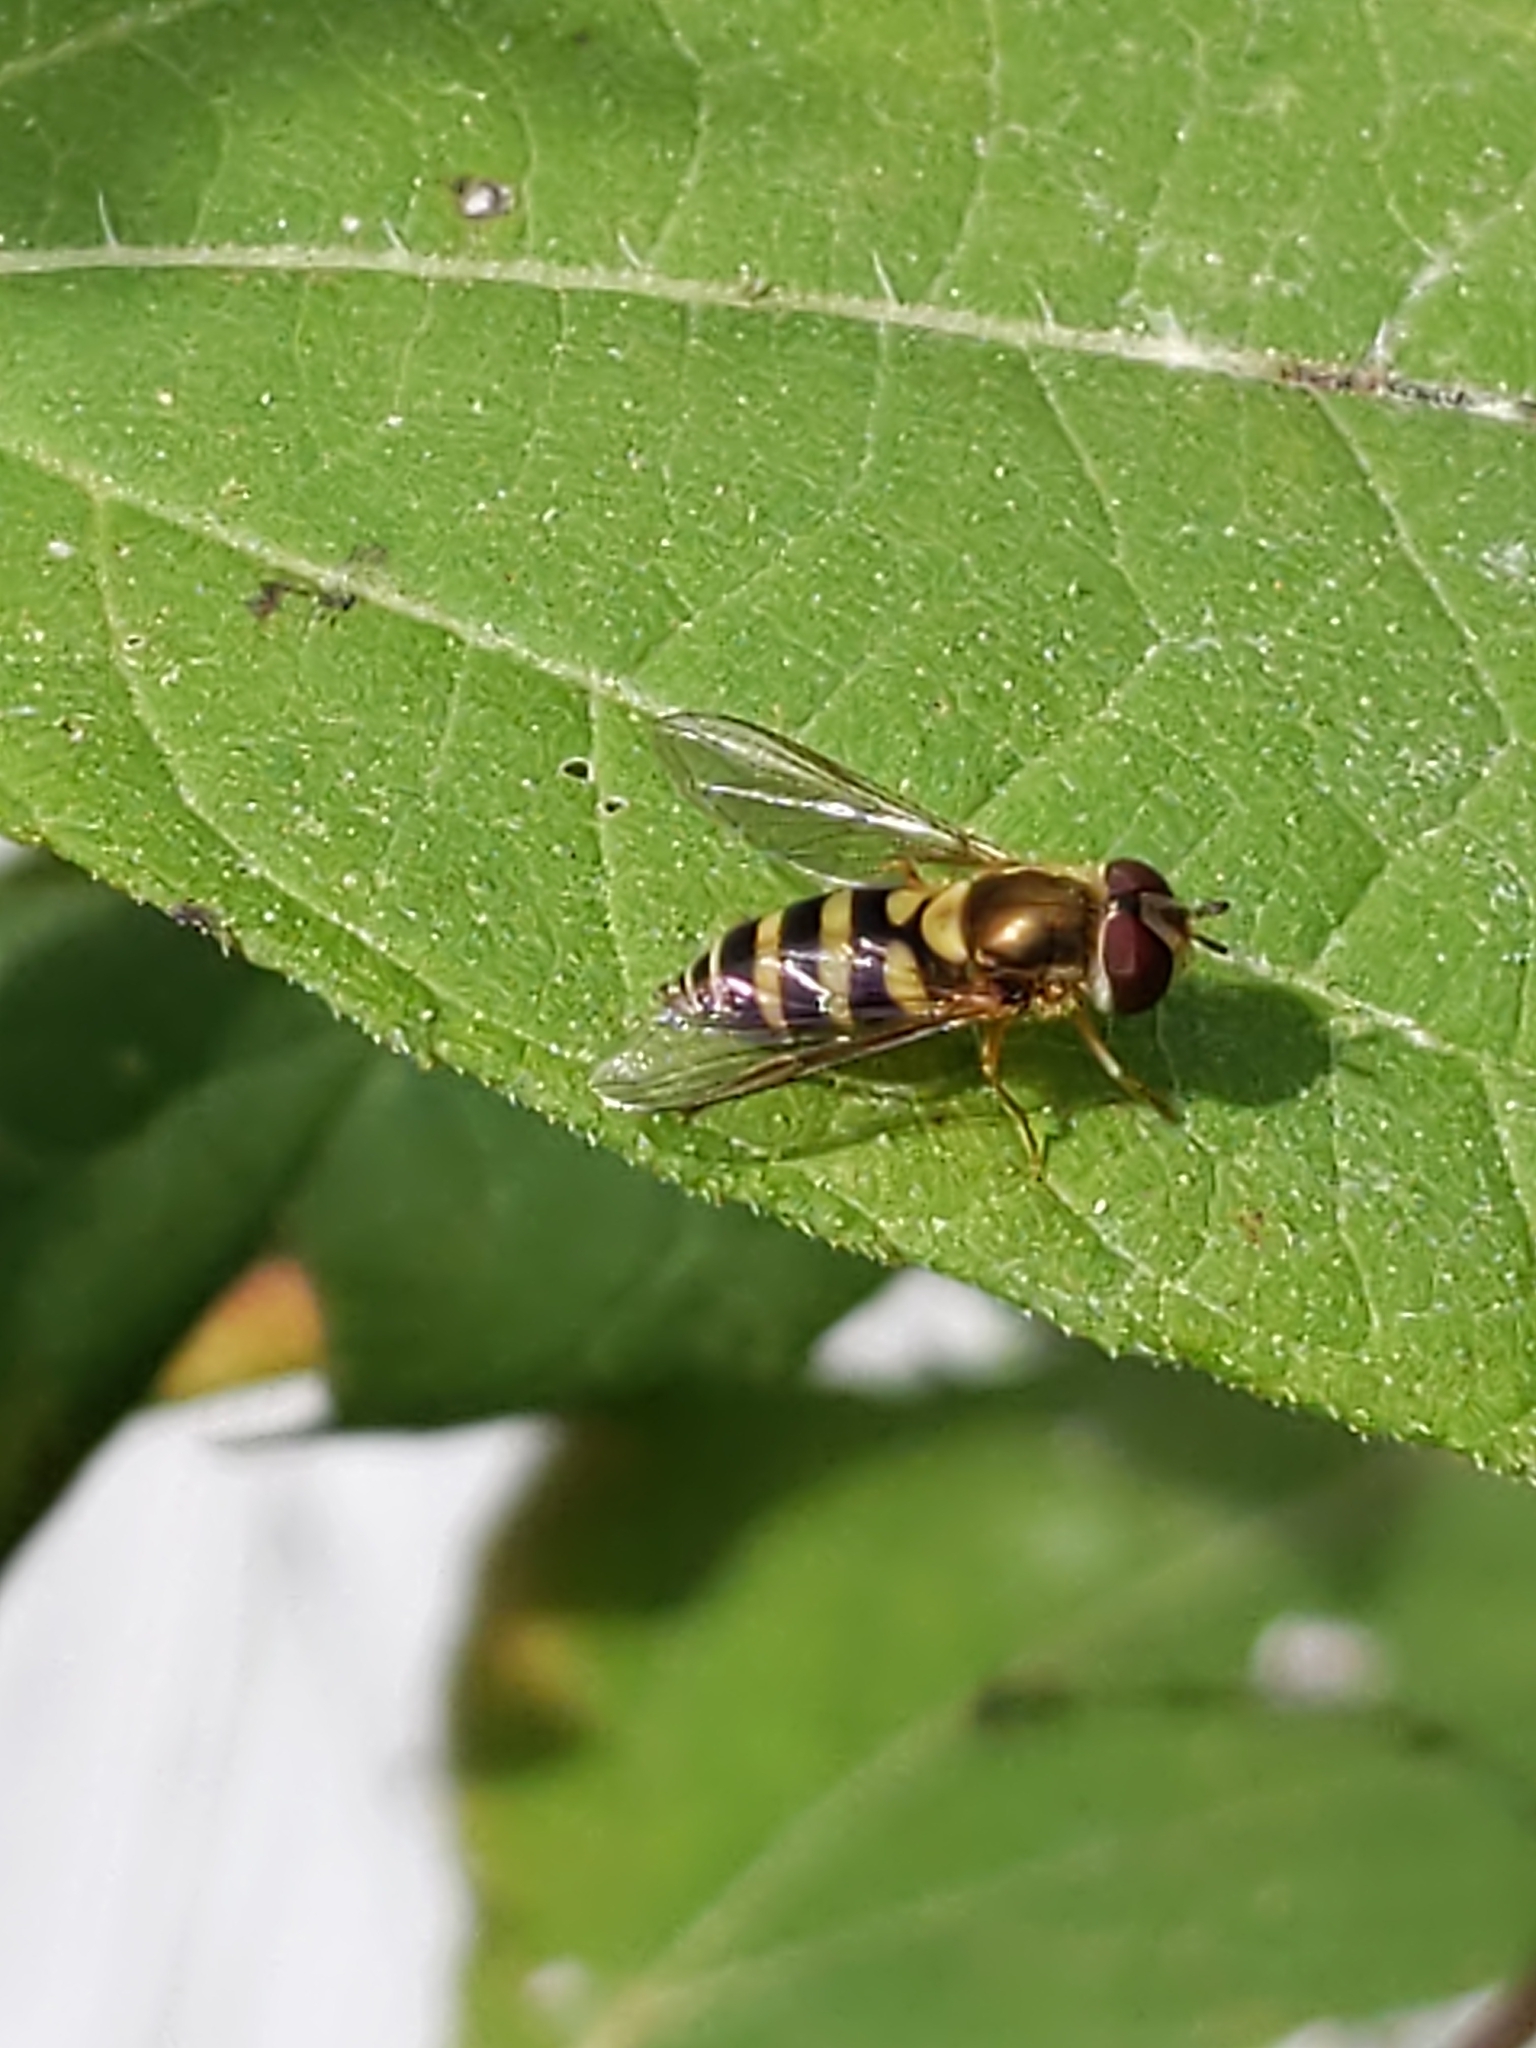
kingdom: Animalia
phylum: Arthropoda
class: Insecta
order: Diptera
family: Syrphidae
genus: Syrphus
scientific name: Syrphus
